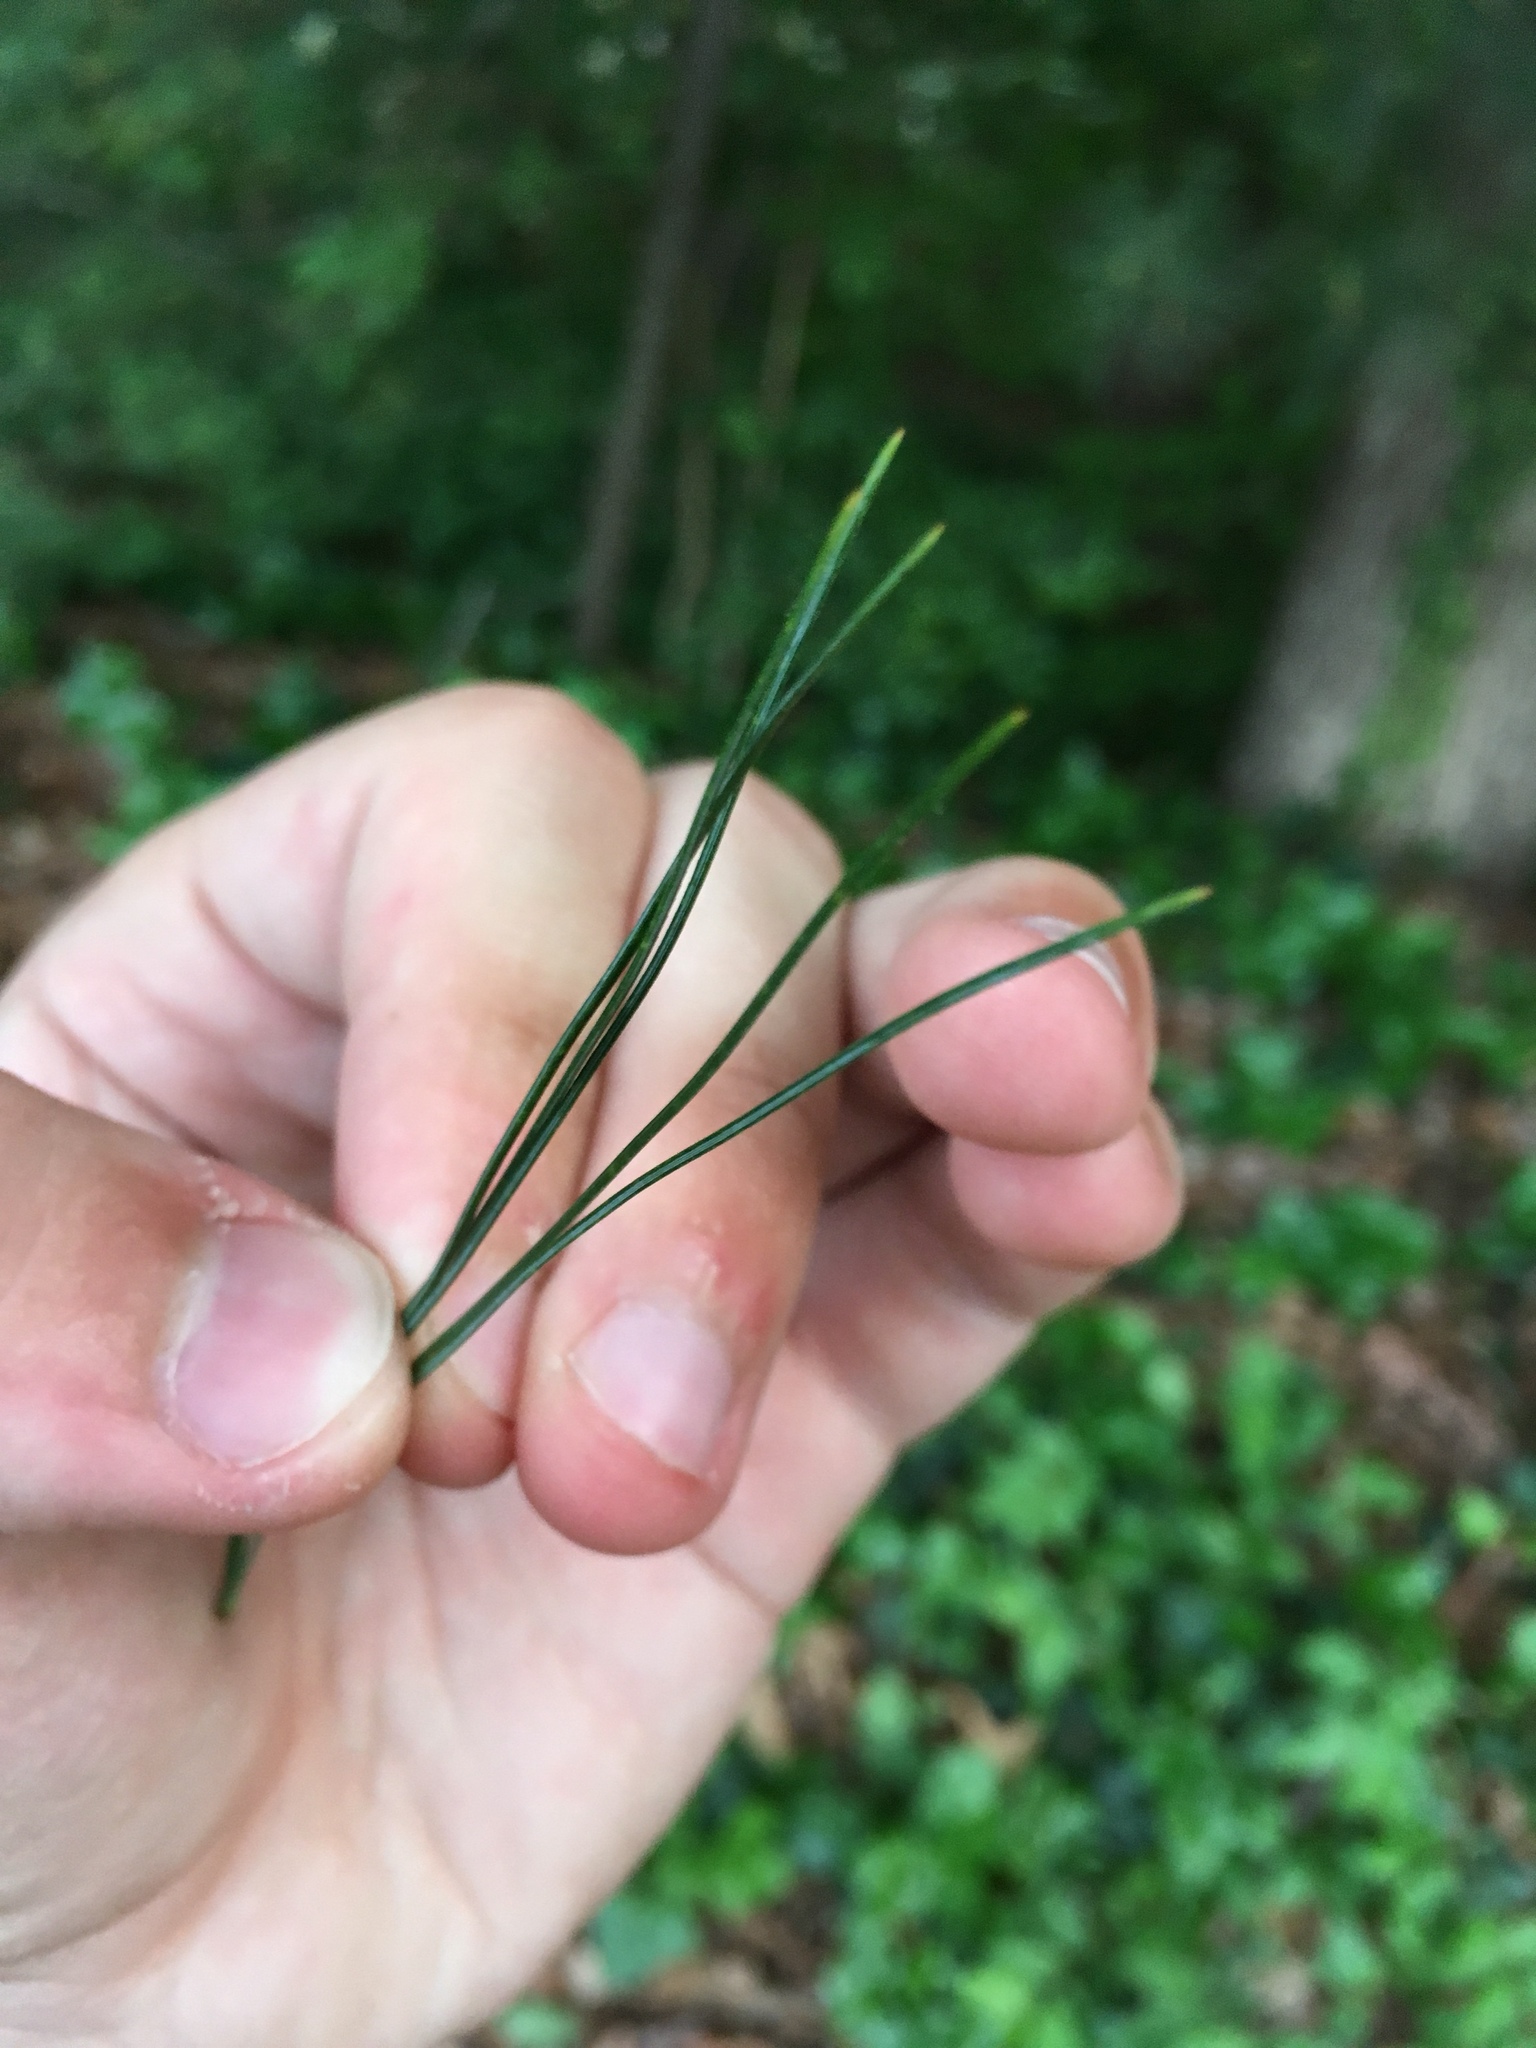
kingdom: Plantae
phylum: Tracheophyta
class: Pinopsida
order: Pinales
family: Pinaceae
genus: Pinus
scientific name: Pinus strobus
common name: Weymouth pine
